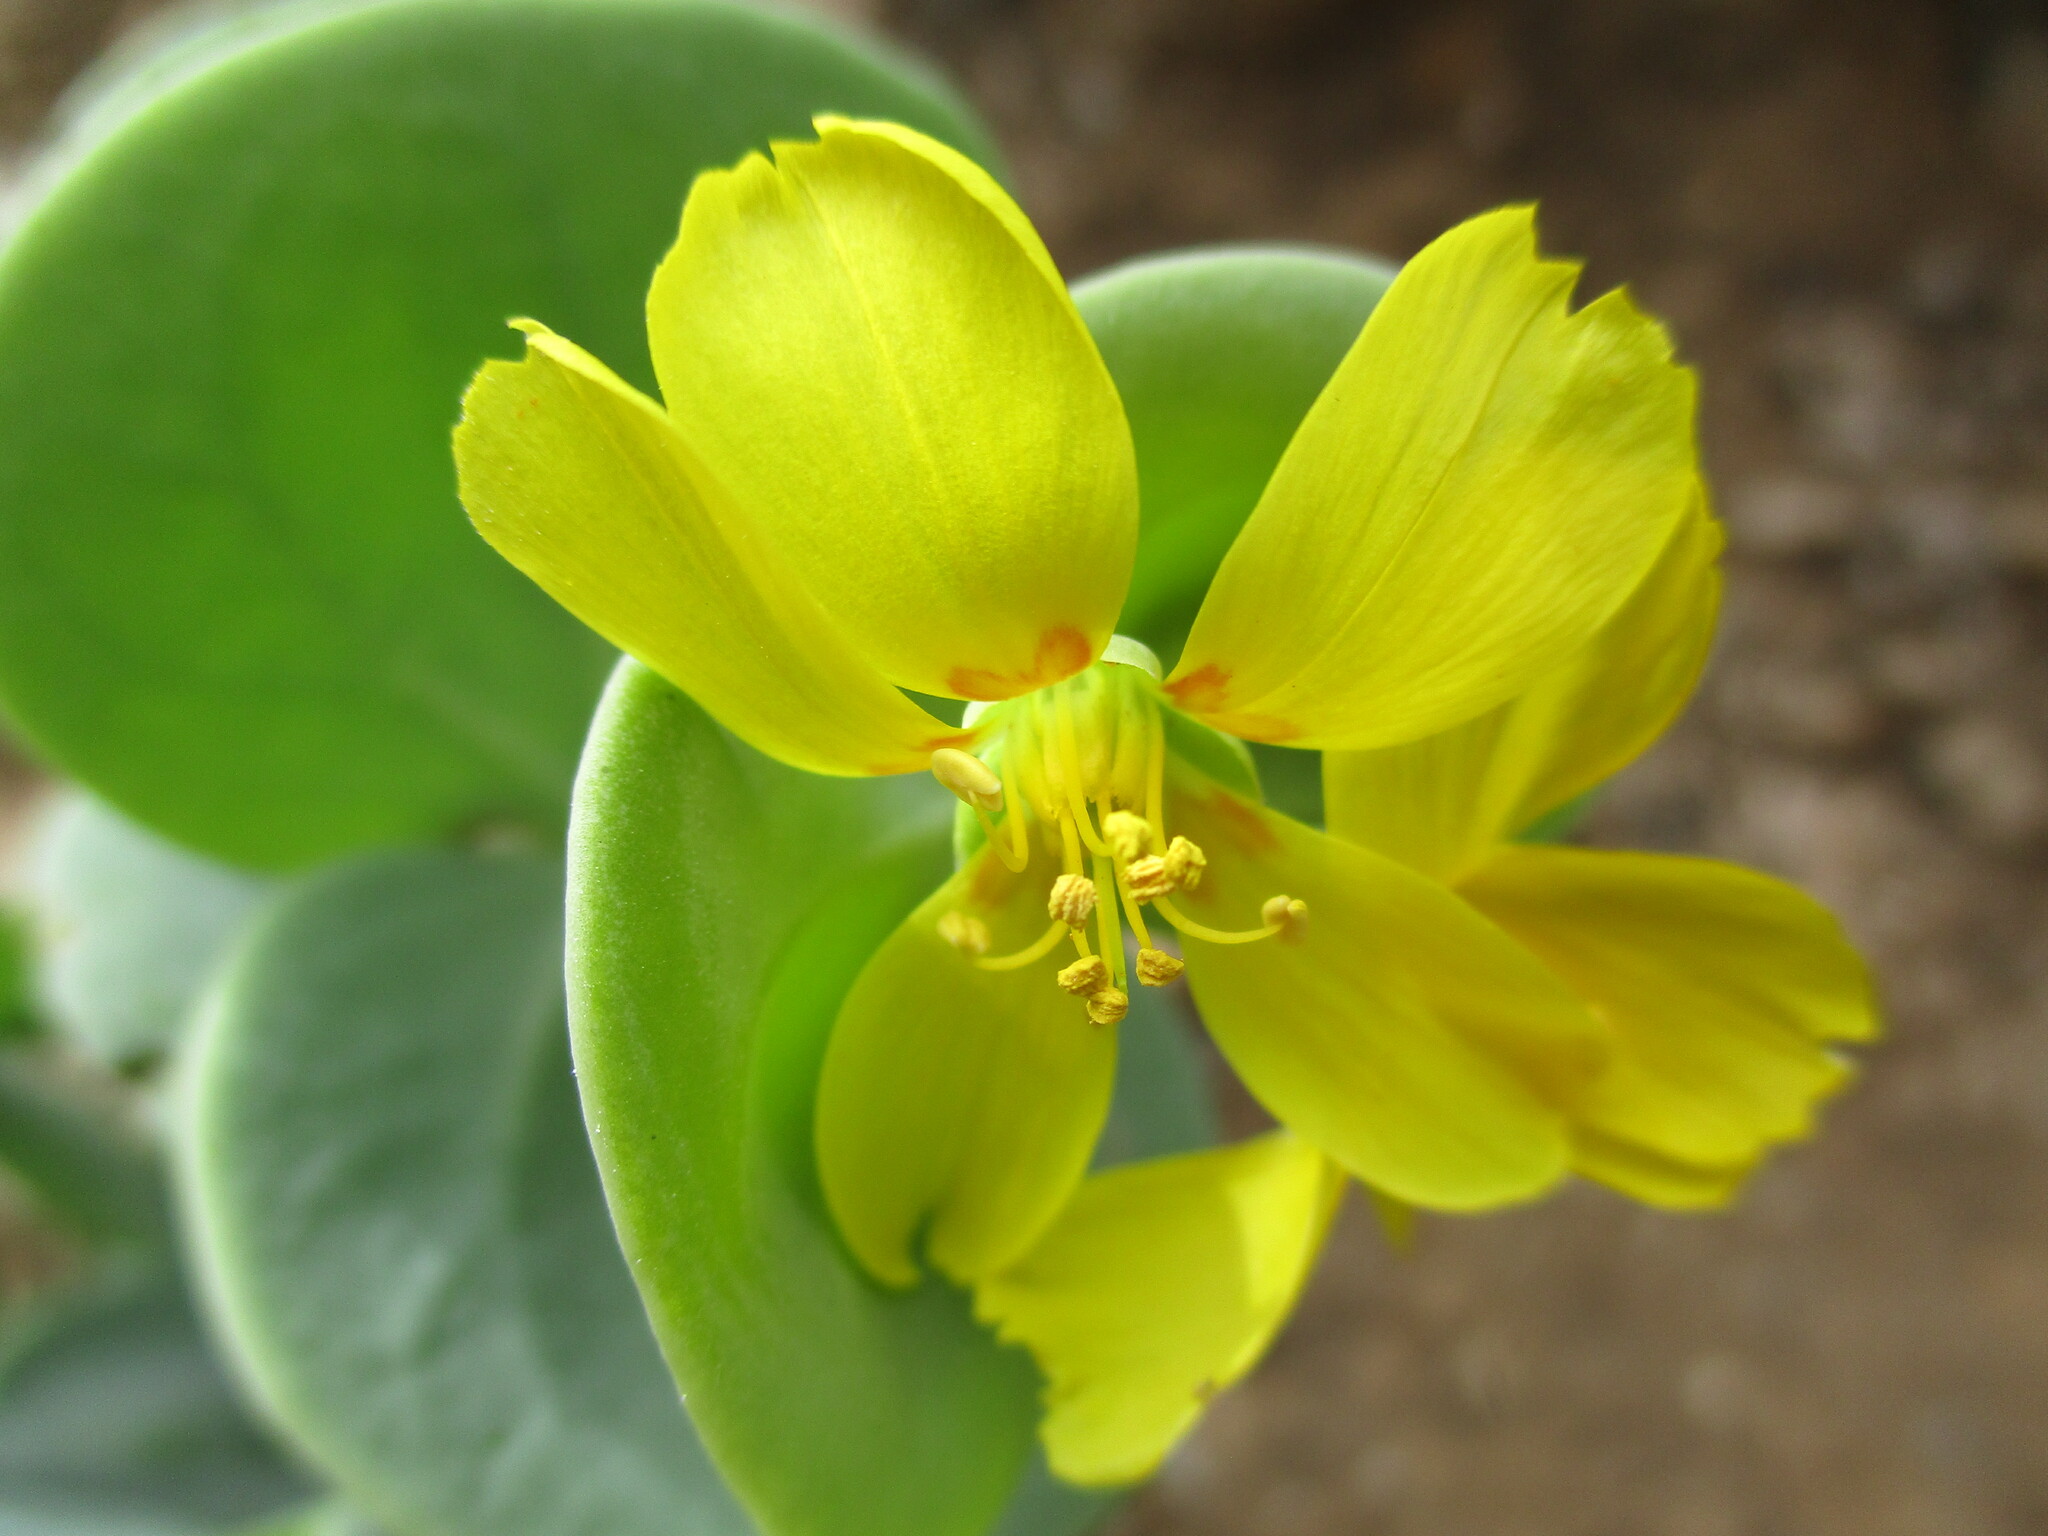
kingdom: Plantae
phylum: Tracheophyta
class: Magnoliopsida
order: Zygophyllales
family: Zygophyllaceae
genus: Roepera
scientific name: Roepera cordifolia
